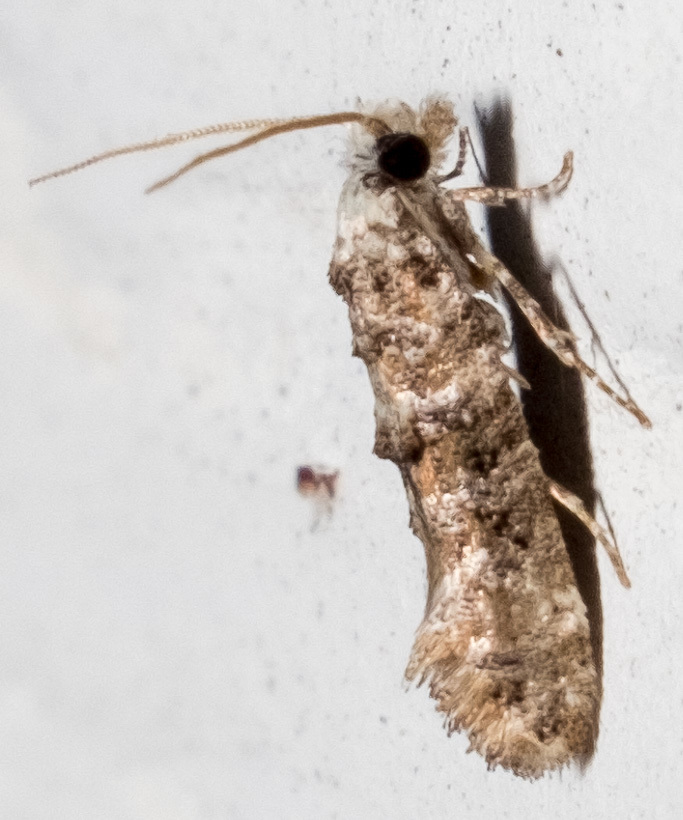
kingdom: Animalia
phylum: Arthropoda
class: Insecta
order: Lepidoptera
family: Tineidae
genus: Xylesthia
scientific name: Xylesthia pruniramiella
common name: Clemens' bark moth
